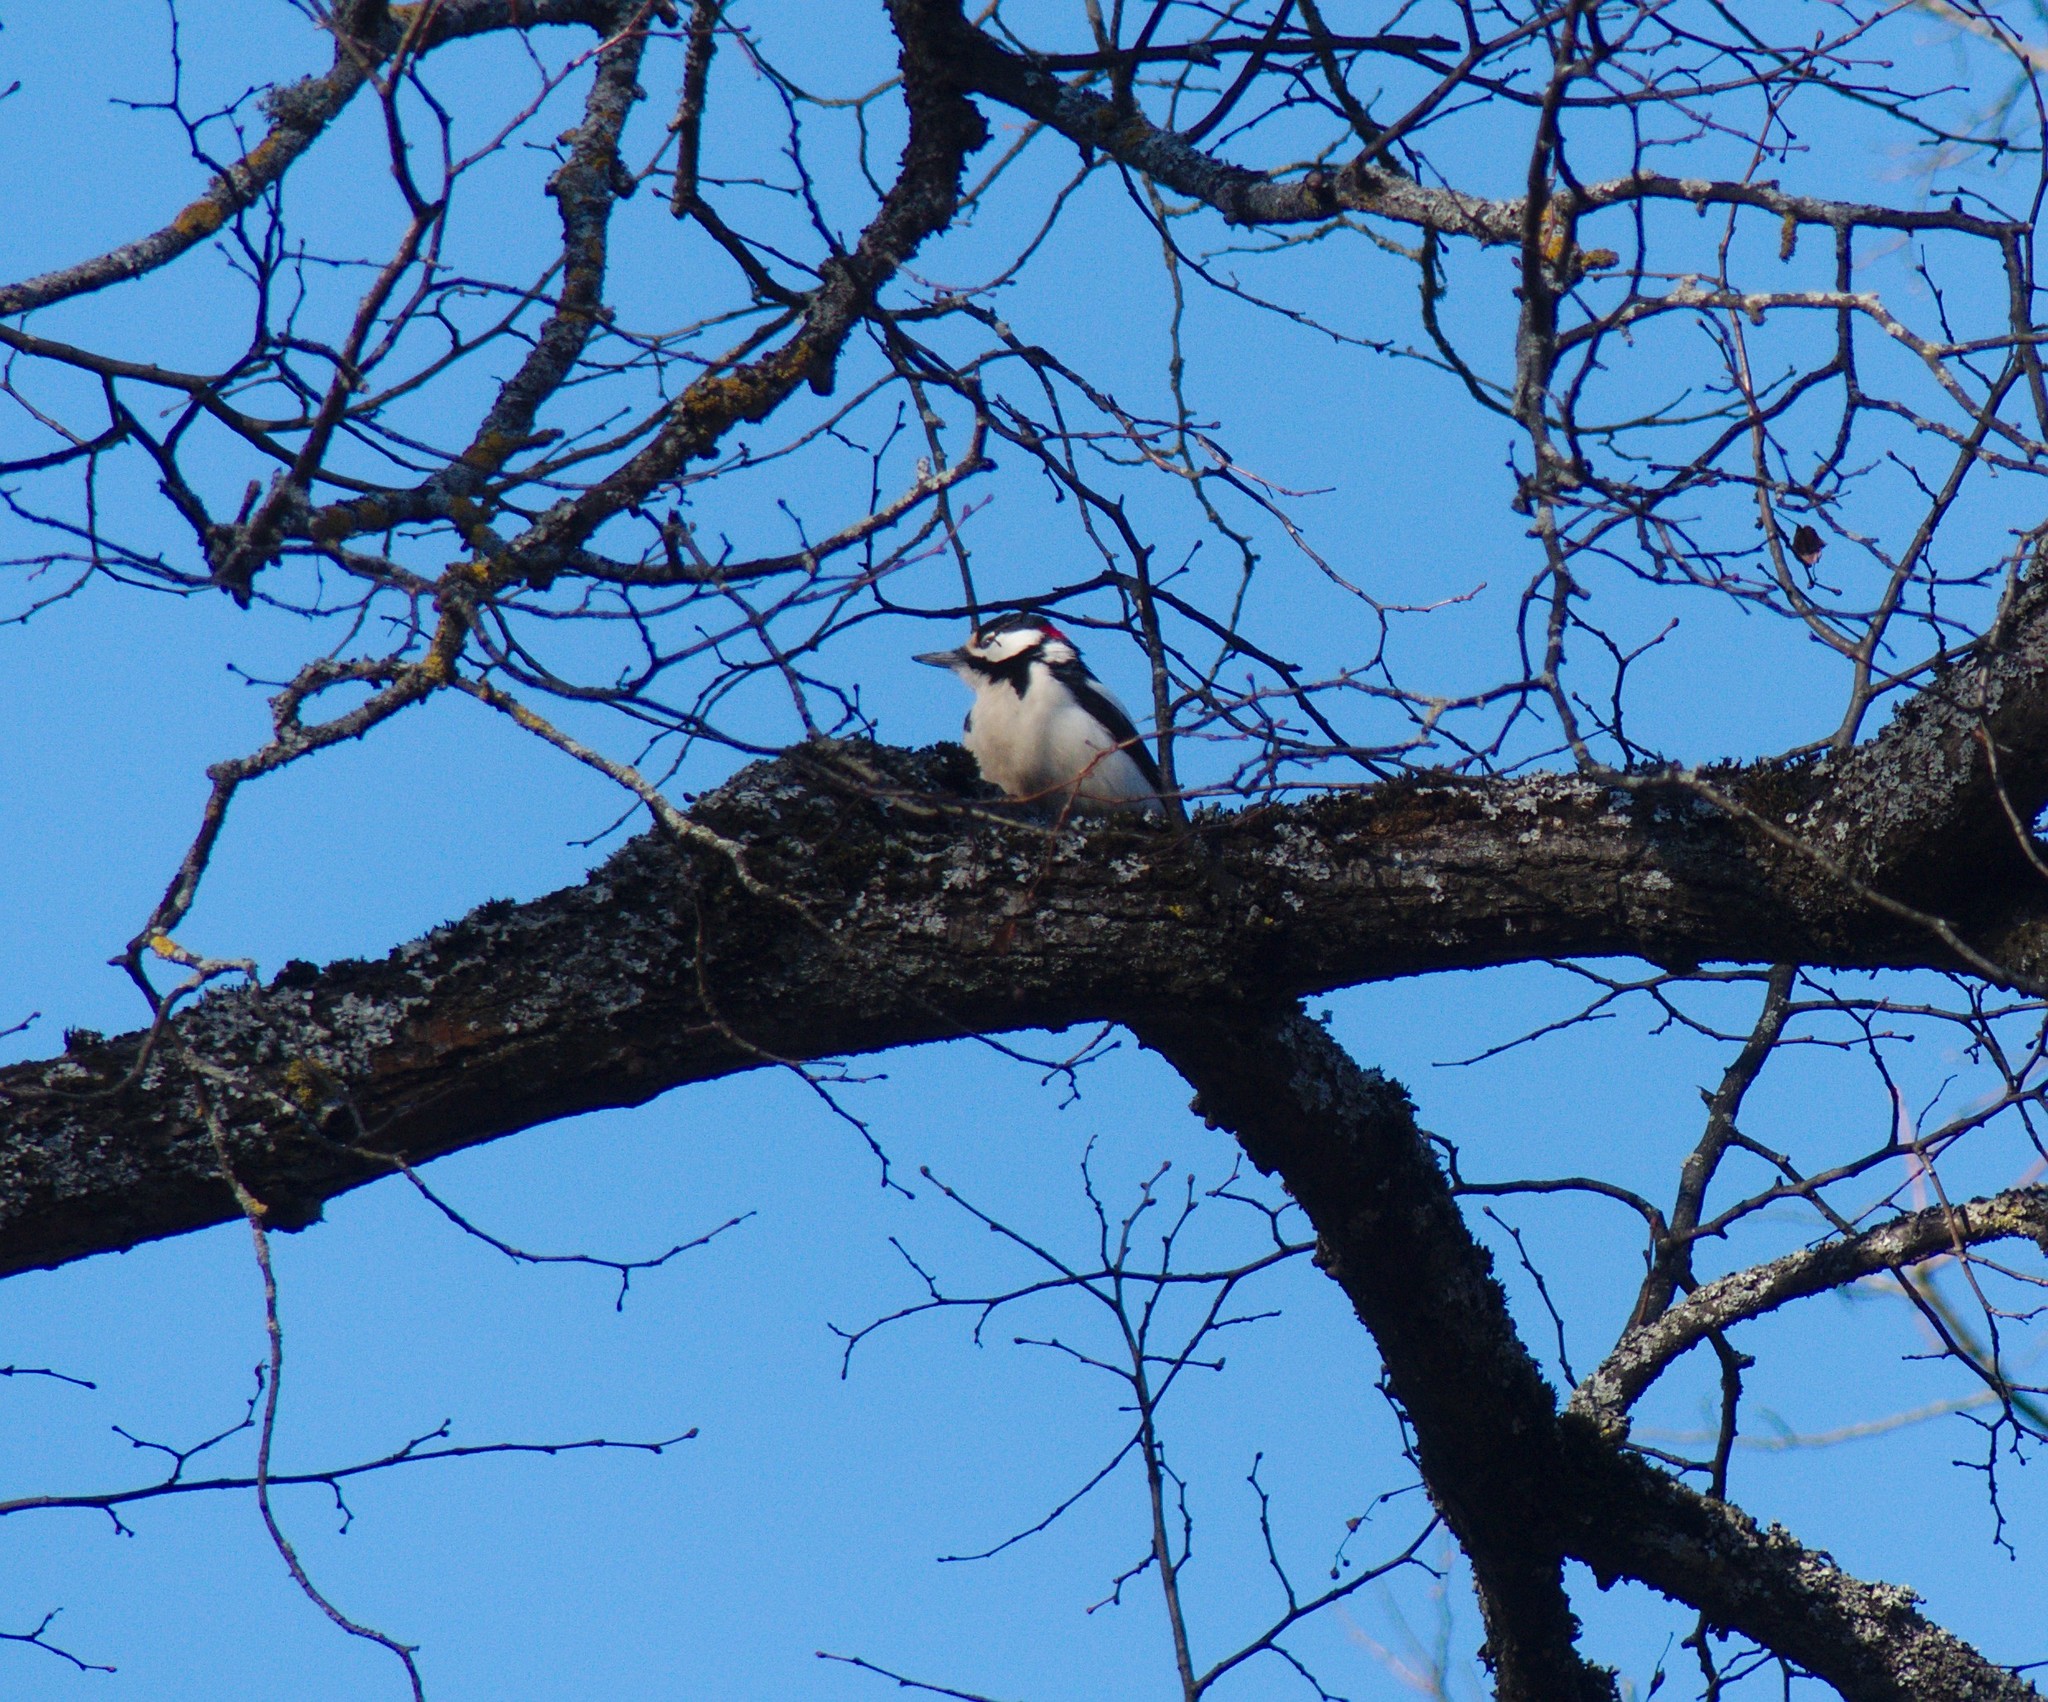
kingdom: Animalia
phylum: Chordata
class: Aves
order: Piciformes
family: Picidae
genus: Dendrocopos
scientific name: Dendrocopos major
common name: Great spotted woodpecker
